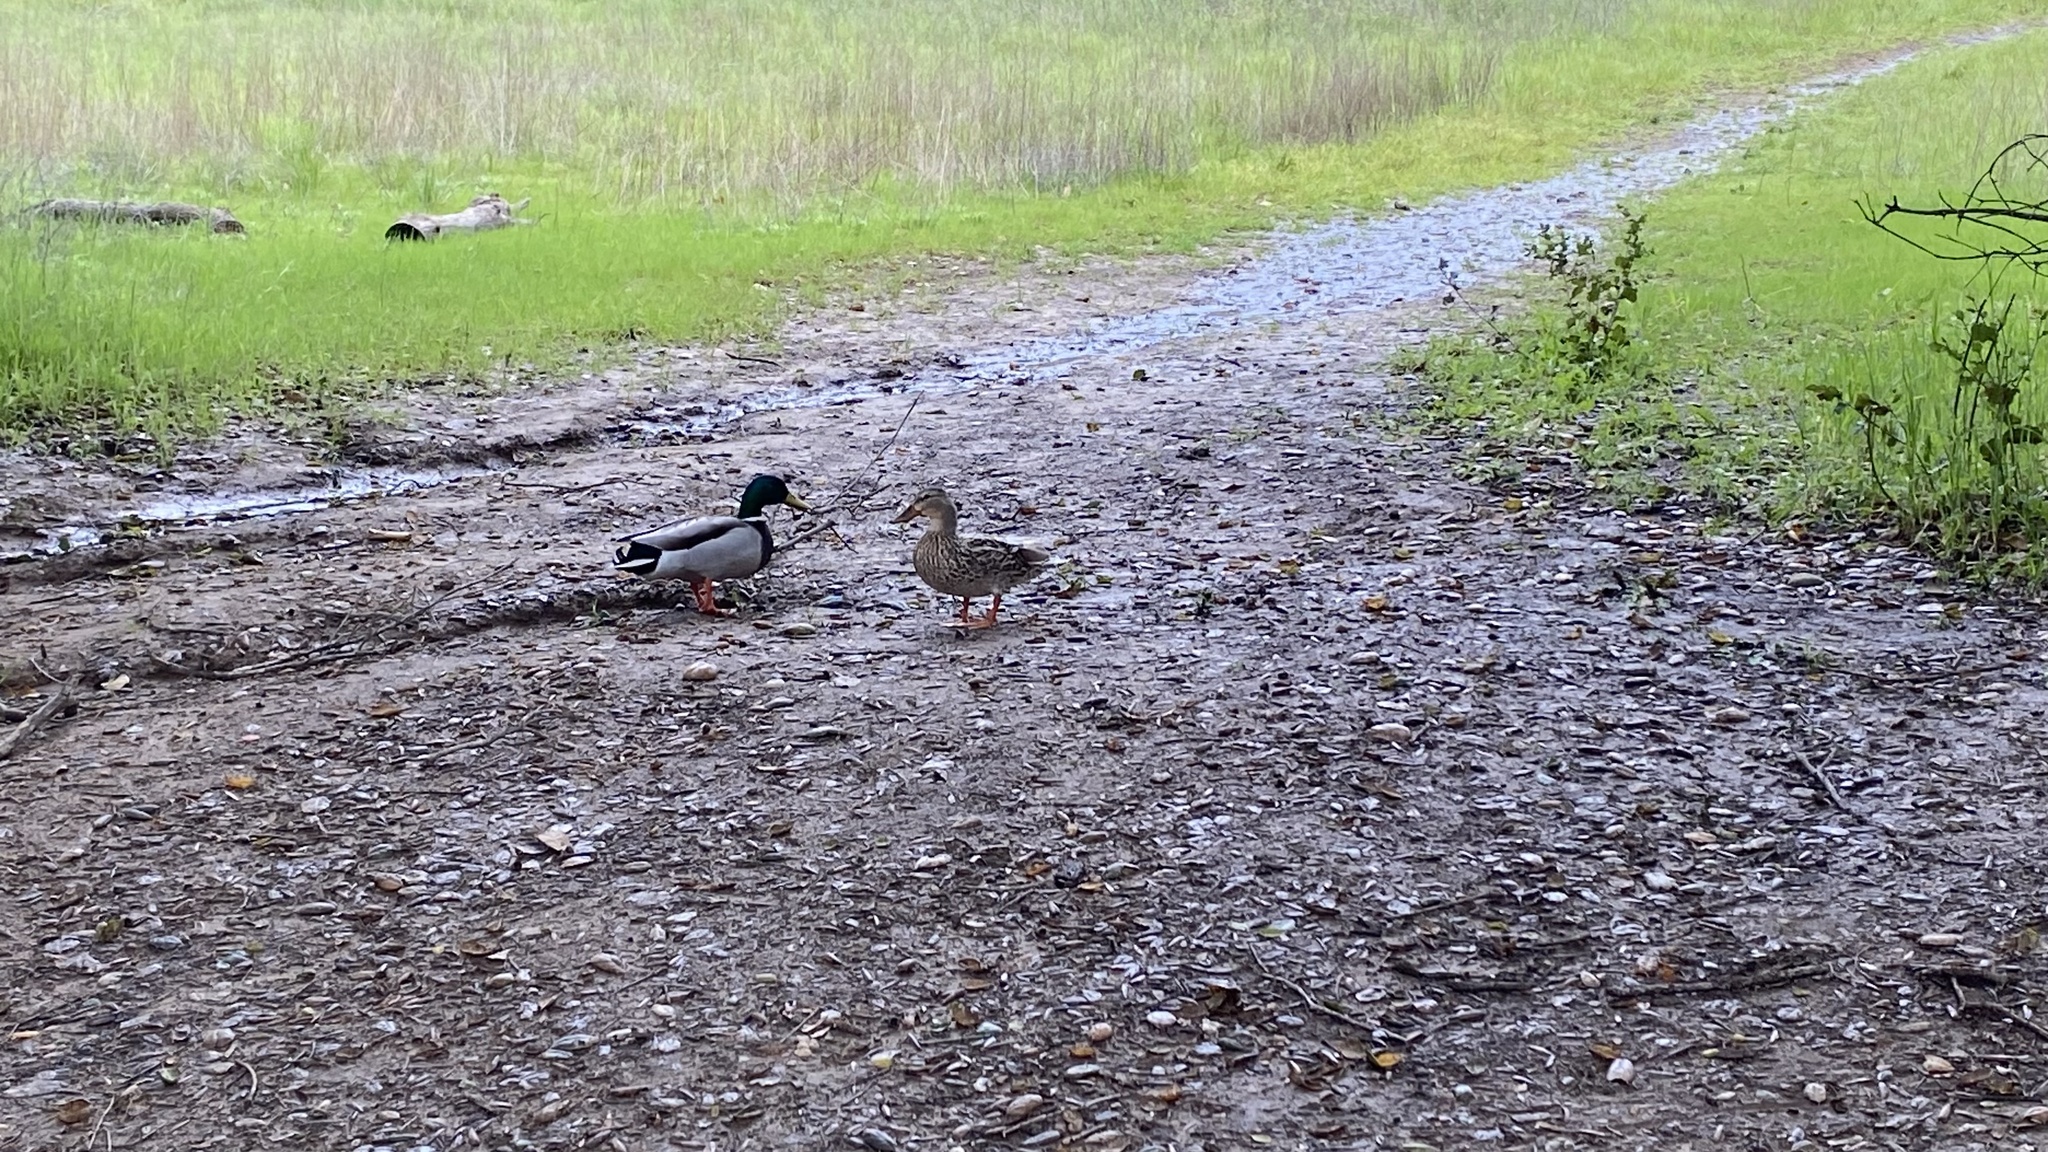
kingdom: Animalia
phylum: Chordata
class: Aves
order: Anseriformes
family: Anatidae
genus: Anas
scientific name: Anas platyrhynchos
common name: Mallard
